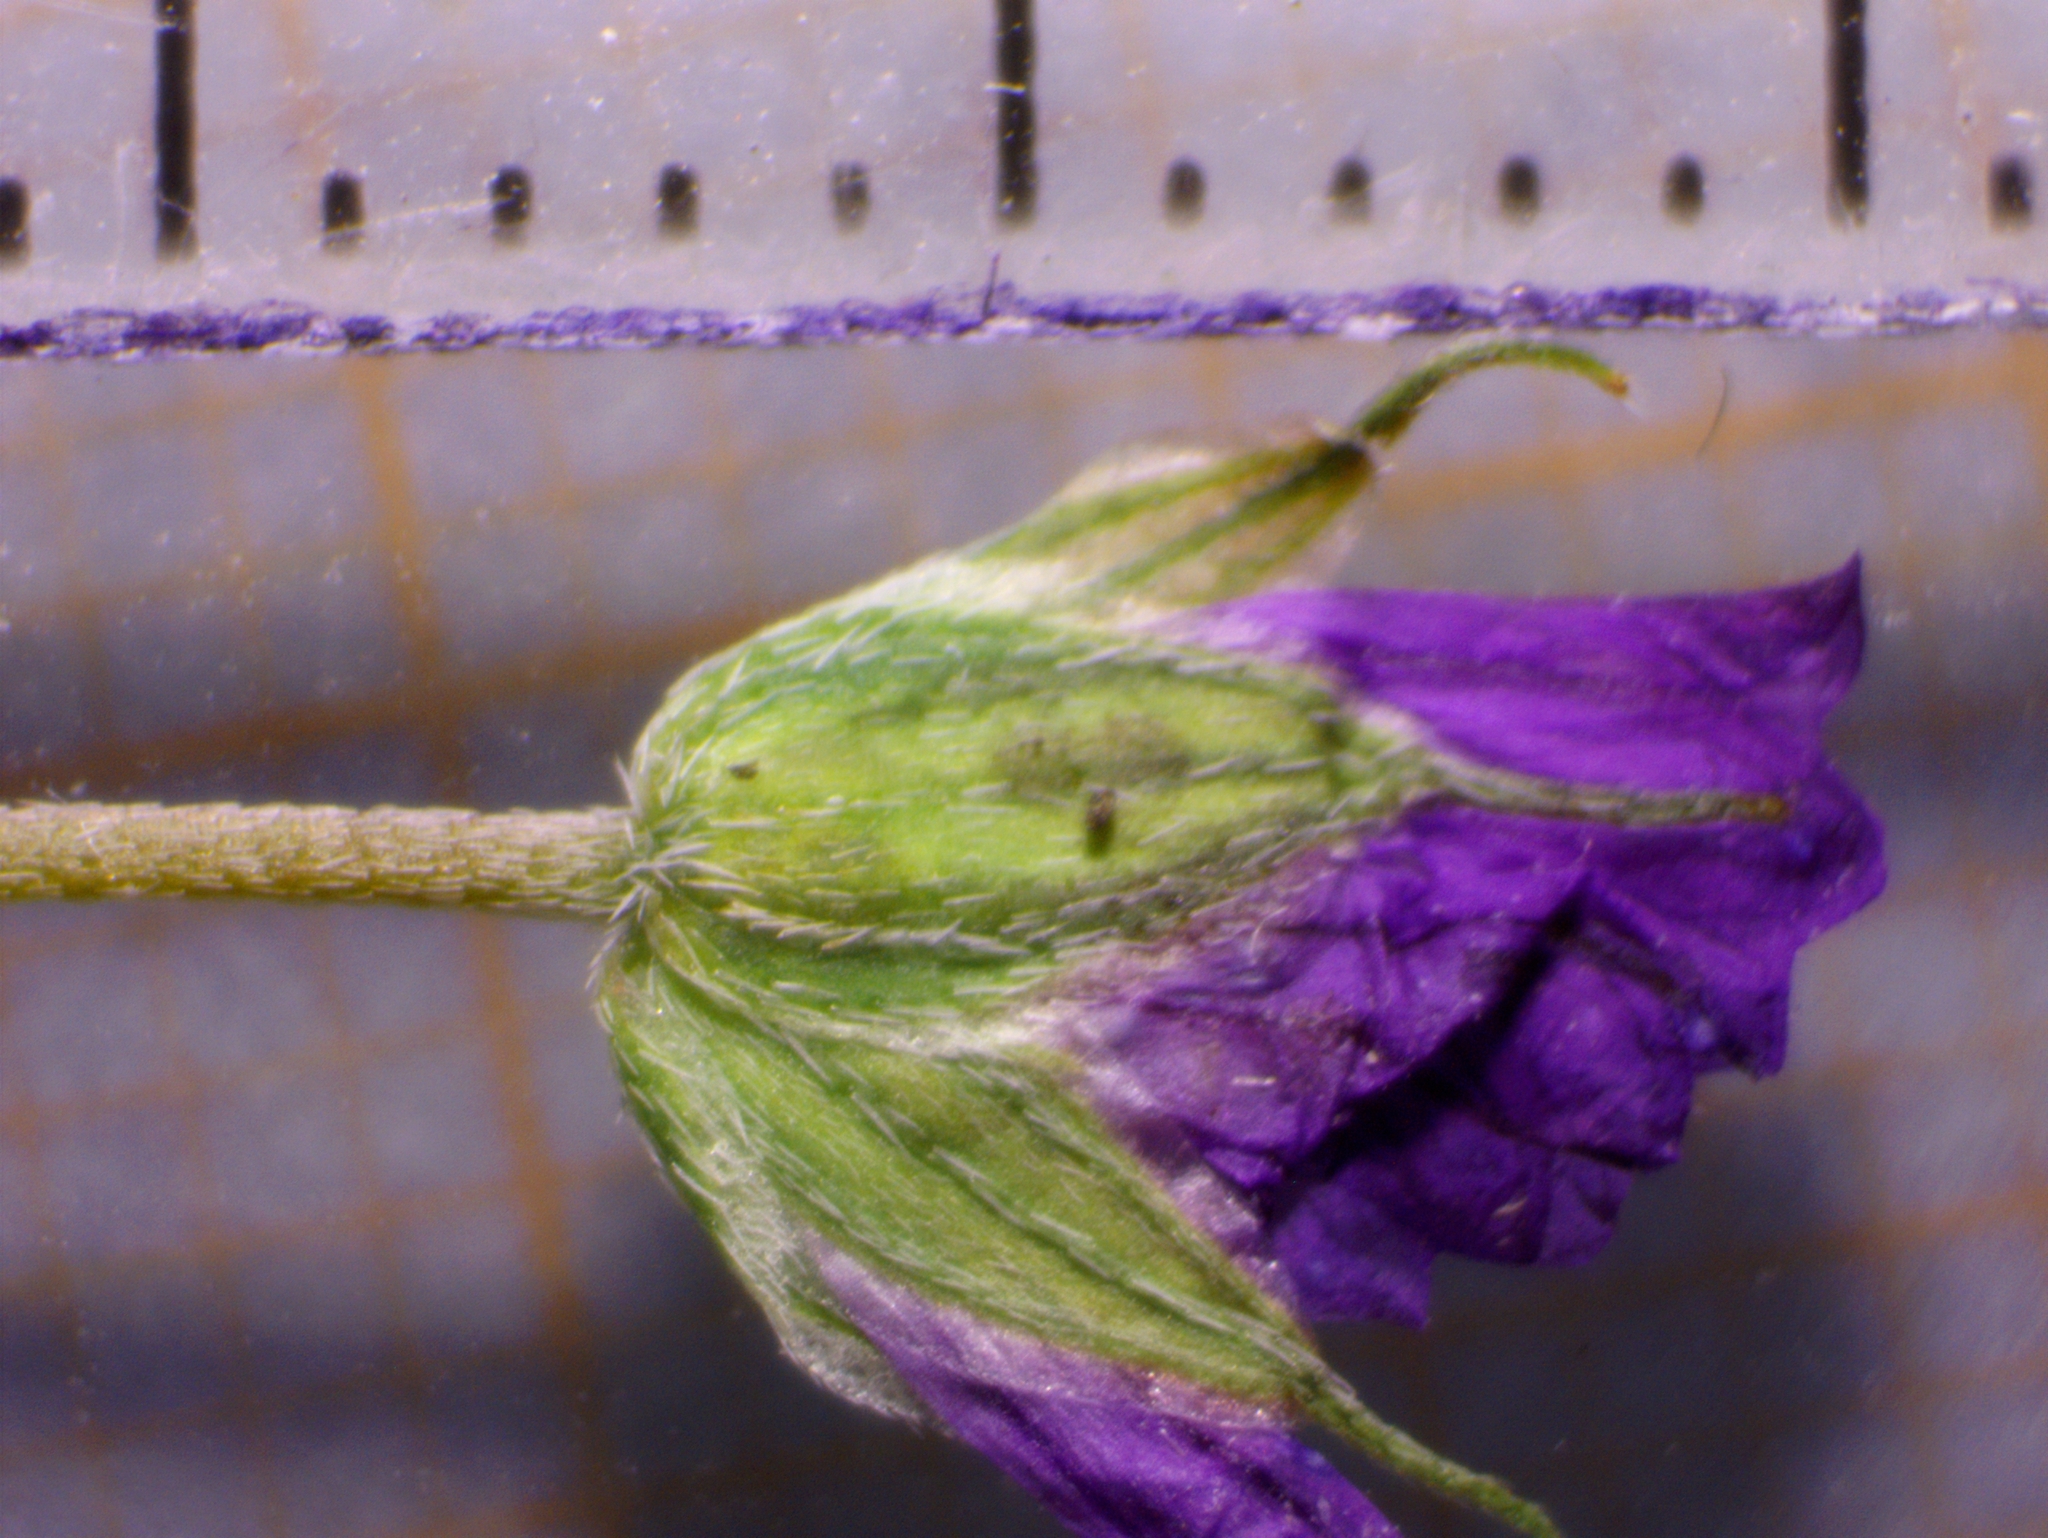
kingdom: Fungi
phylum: Ascomycota
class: Leotiomycetes
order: Helotiales
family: Erysiphaceae
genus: Podosphaera
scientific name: Podosphaera fugax
